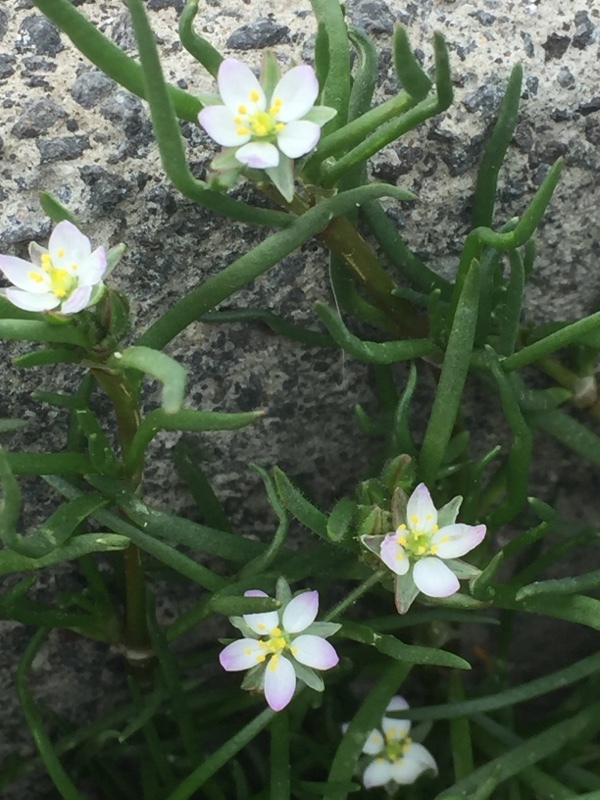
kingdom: Plantae
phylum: Tracheophyta
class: Magnoliopsida
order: Caryophyllales
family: Caryophyllaceae
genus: Spergularia
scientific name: Spergularia marina
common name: Lesser sea-spurrey
